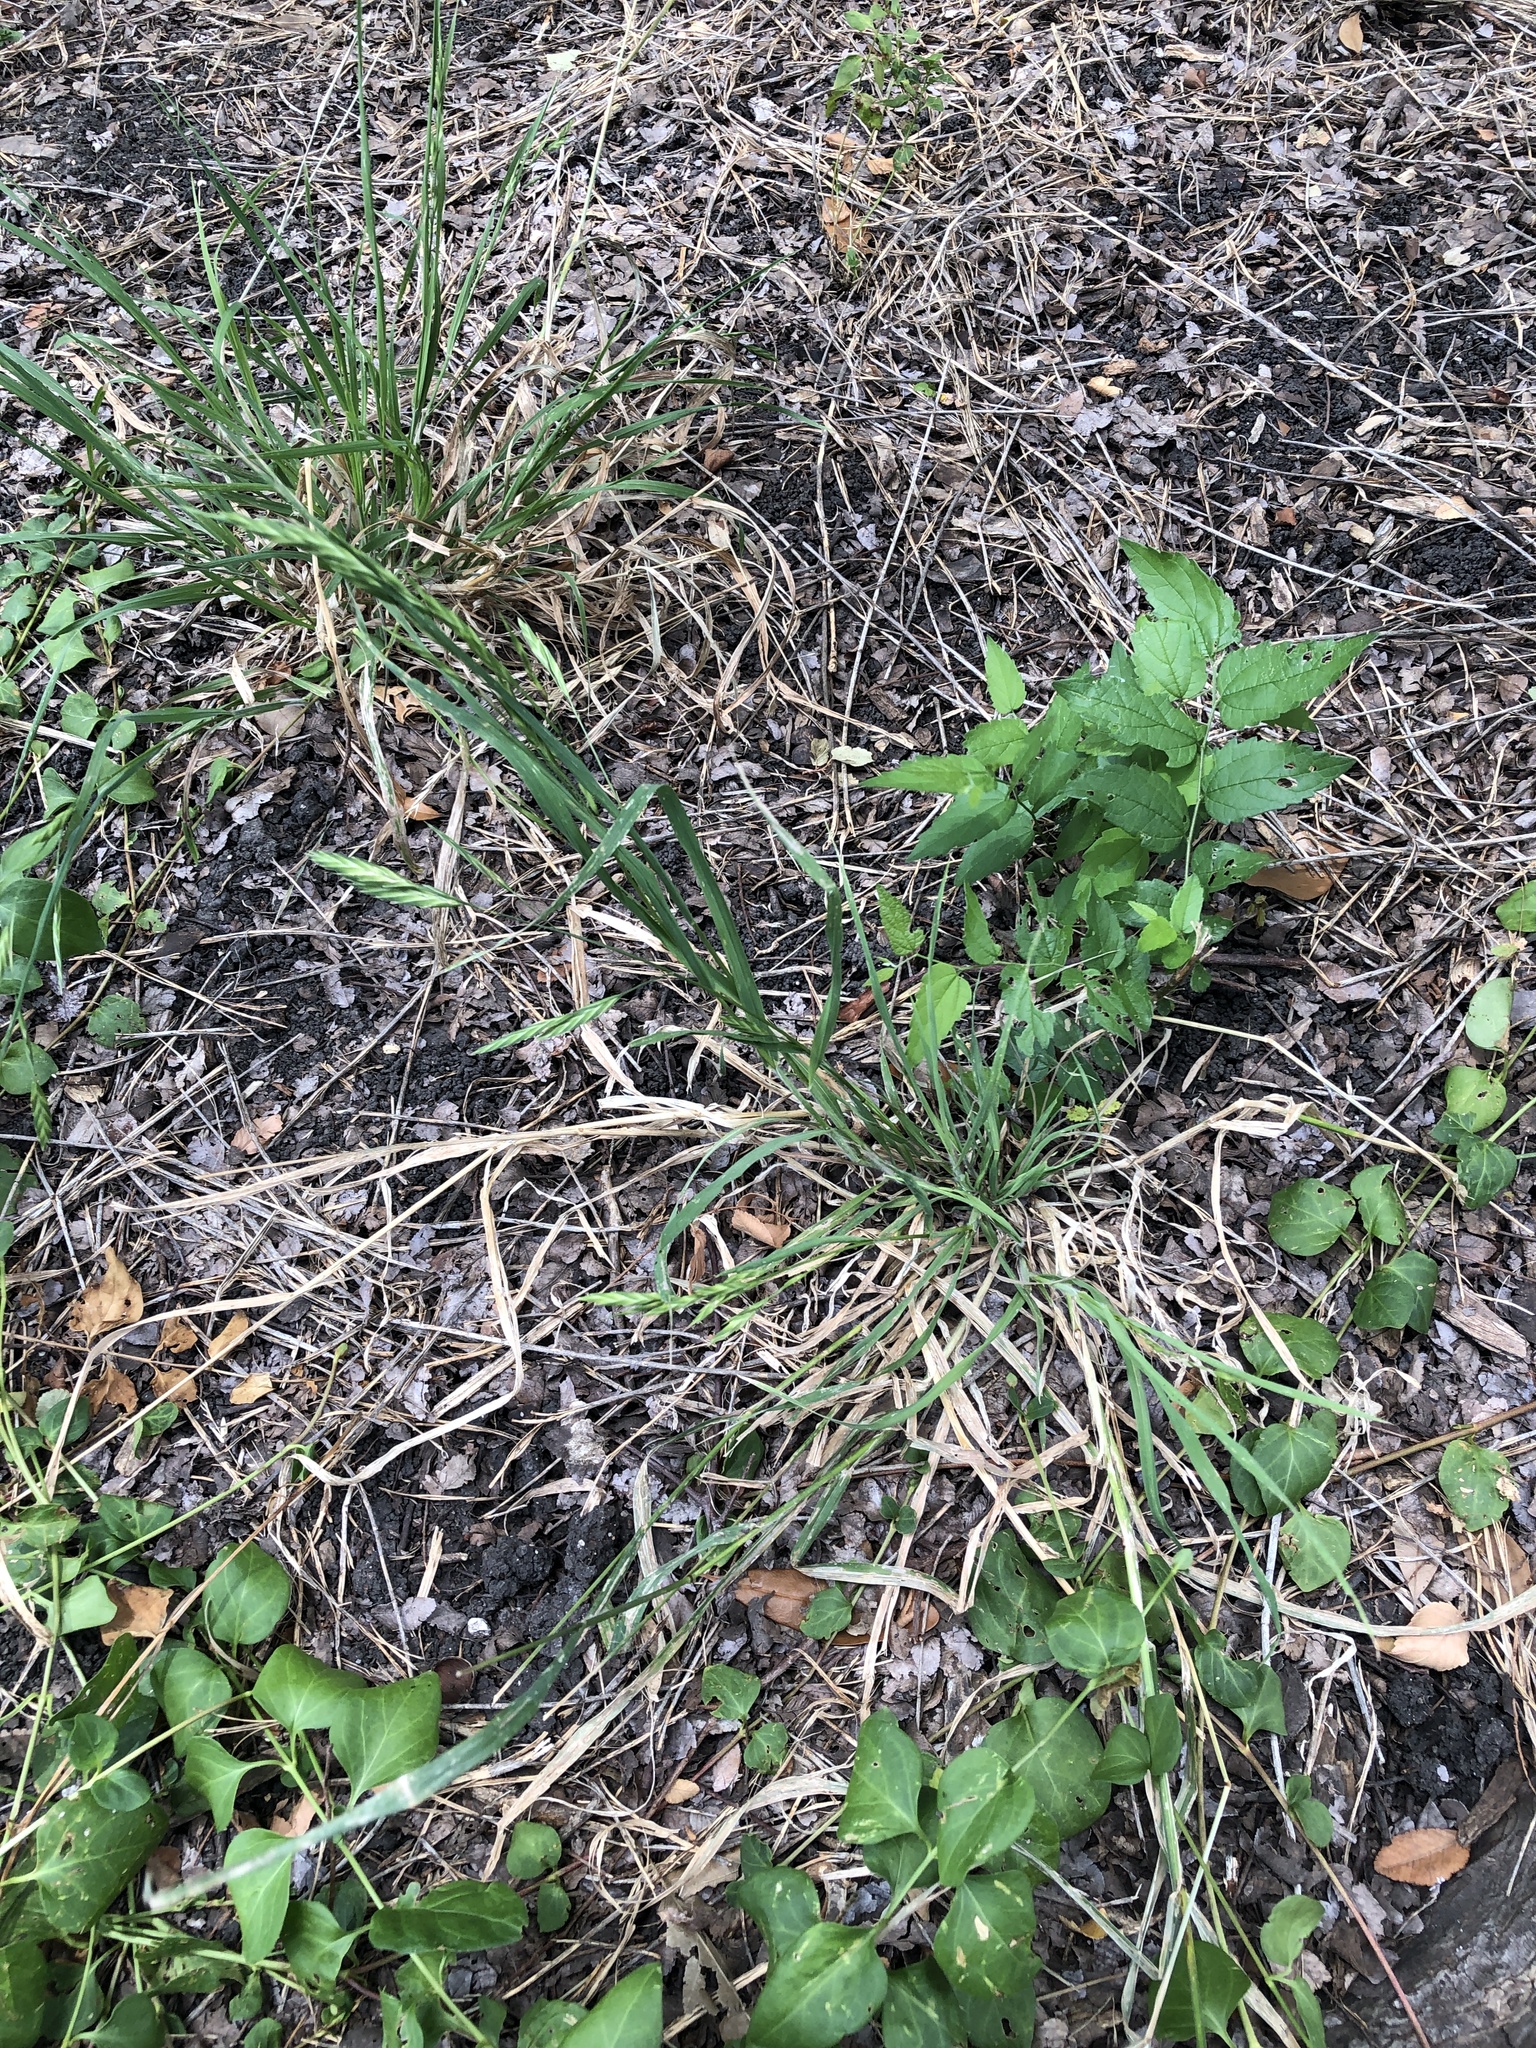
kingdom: Plantae
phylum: Tracheophyta
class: Liliopsida
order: Poales
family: Poaceae
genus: Bromus
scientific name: Bromus catharticus
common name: Rescuegrass
